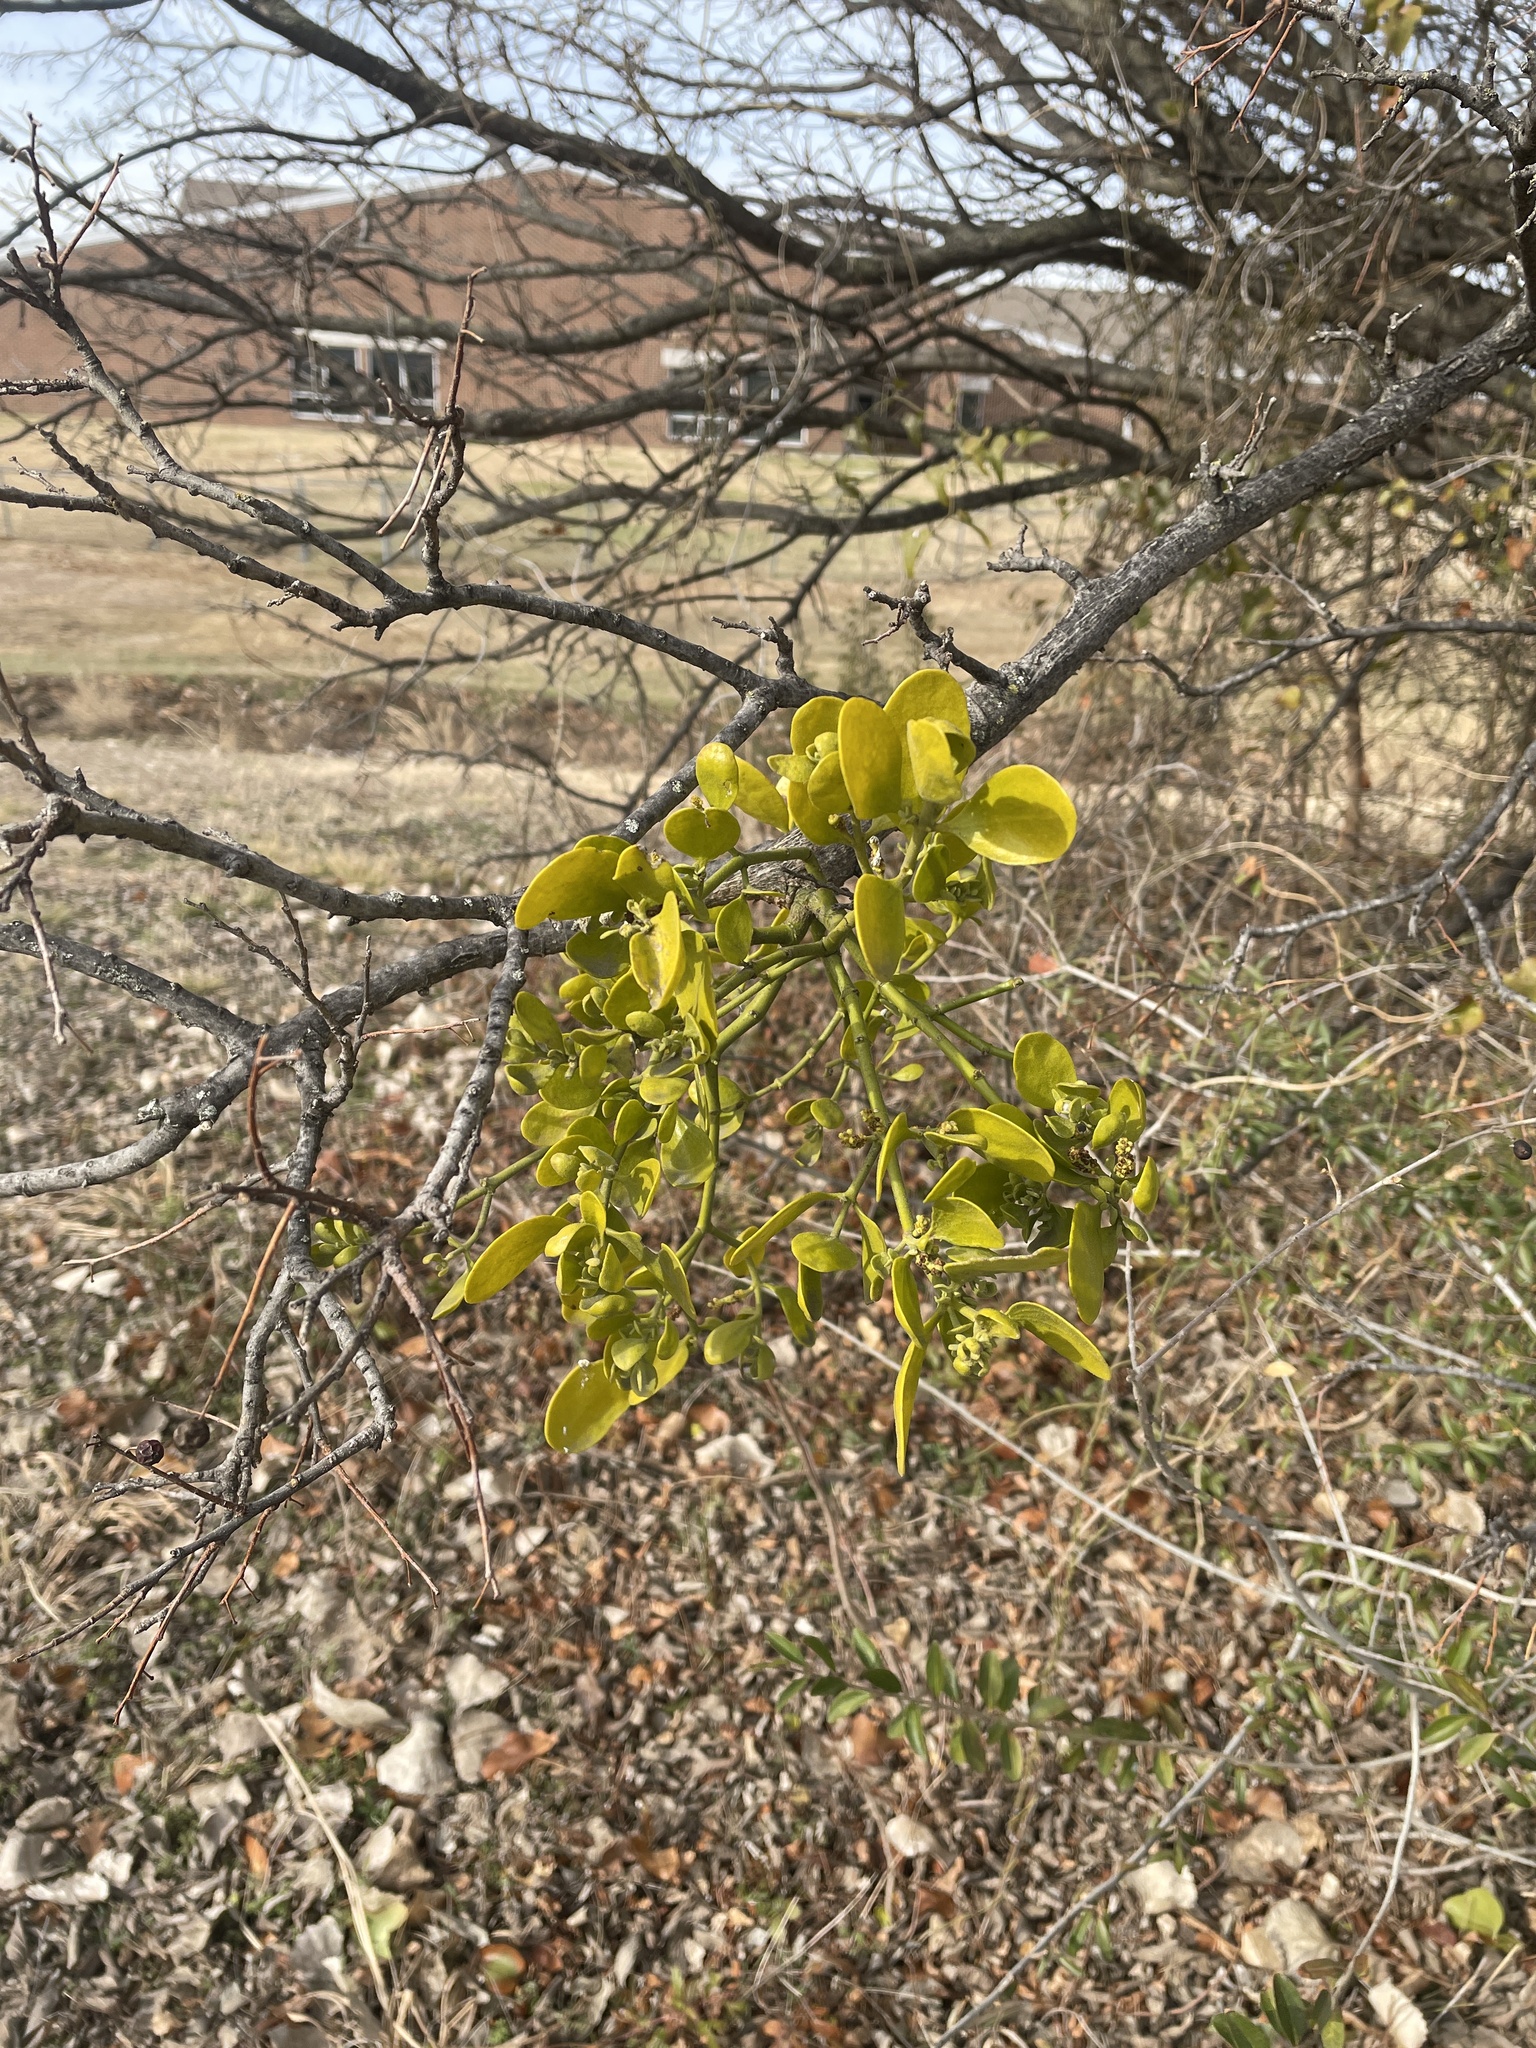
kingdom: Plantae
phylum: Tracheophyta
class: Magnoliopsida
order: Santalales
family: Viscaceae
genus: Phoradendron
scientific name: Phoradendron leucarpum
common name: Pacific mistletoe
